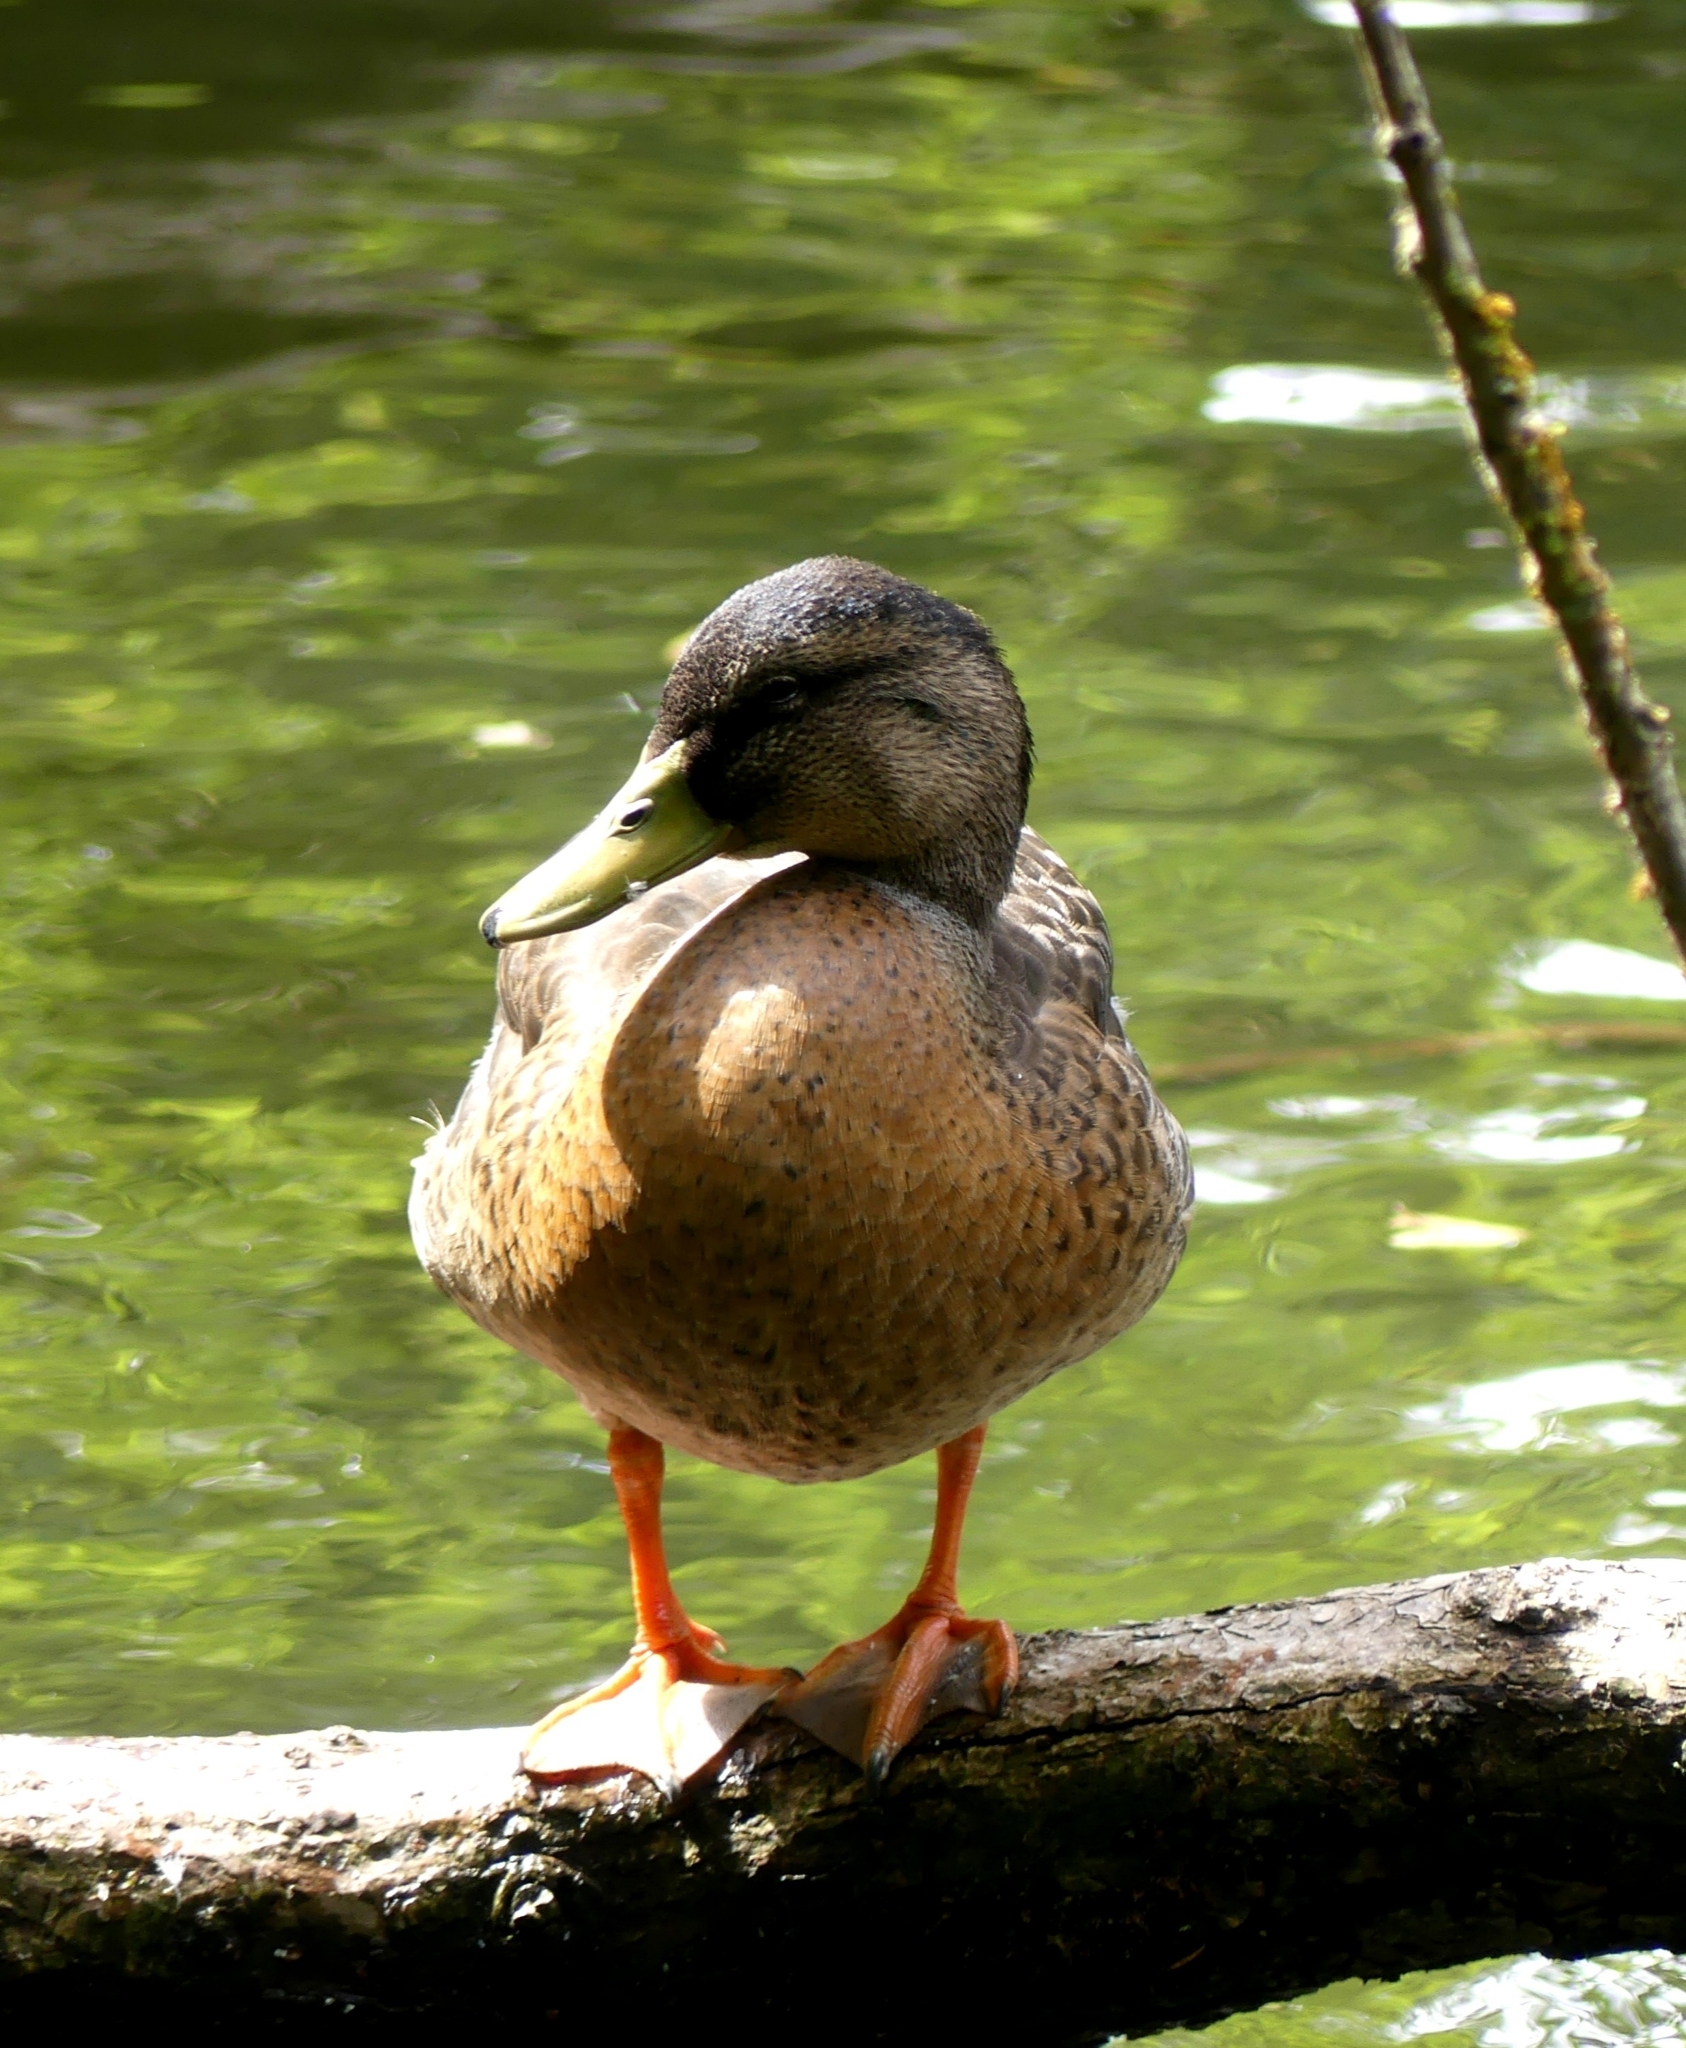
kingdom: Animalia
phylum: Chordata
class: Aves
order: Anseriformes
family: Anatidae
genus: Anas
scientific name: Anas platyrhynchos
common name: Mallard
